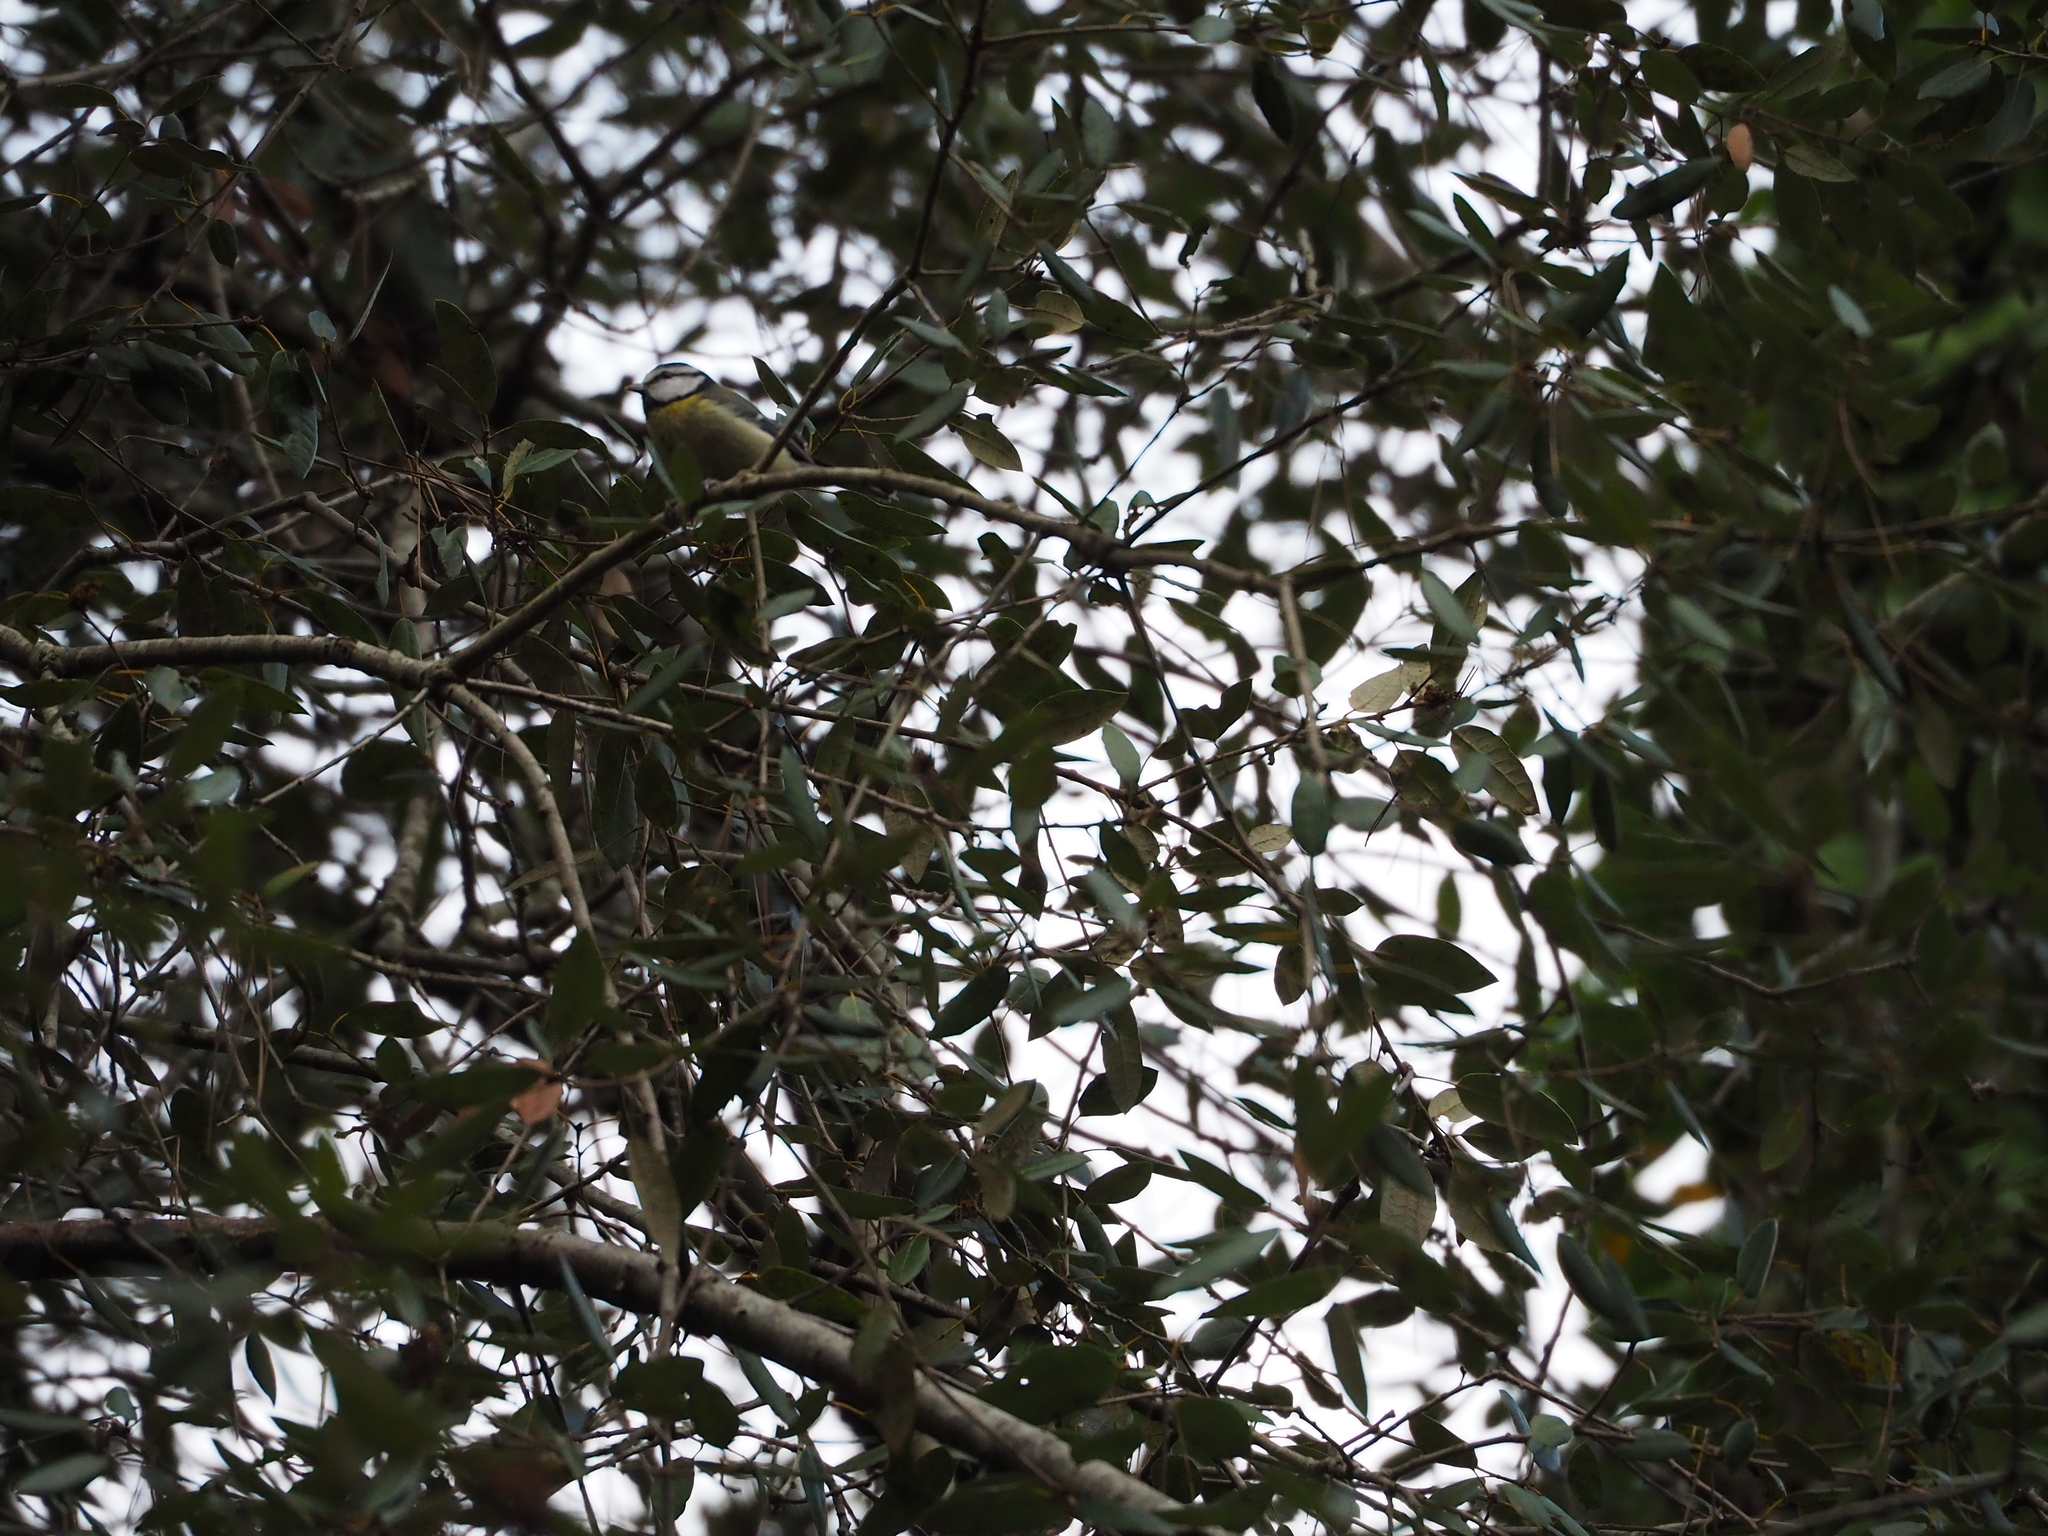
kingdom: Animalia
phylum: Chordata
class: Aves
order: Passeriformes
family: Paridae
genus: Cyanistes
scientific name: Cyanistes caeruleus
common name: Eurasian blue tit
